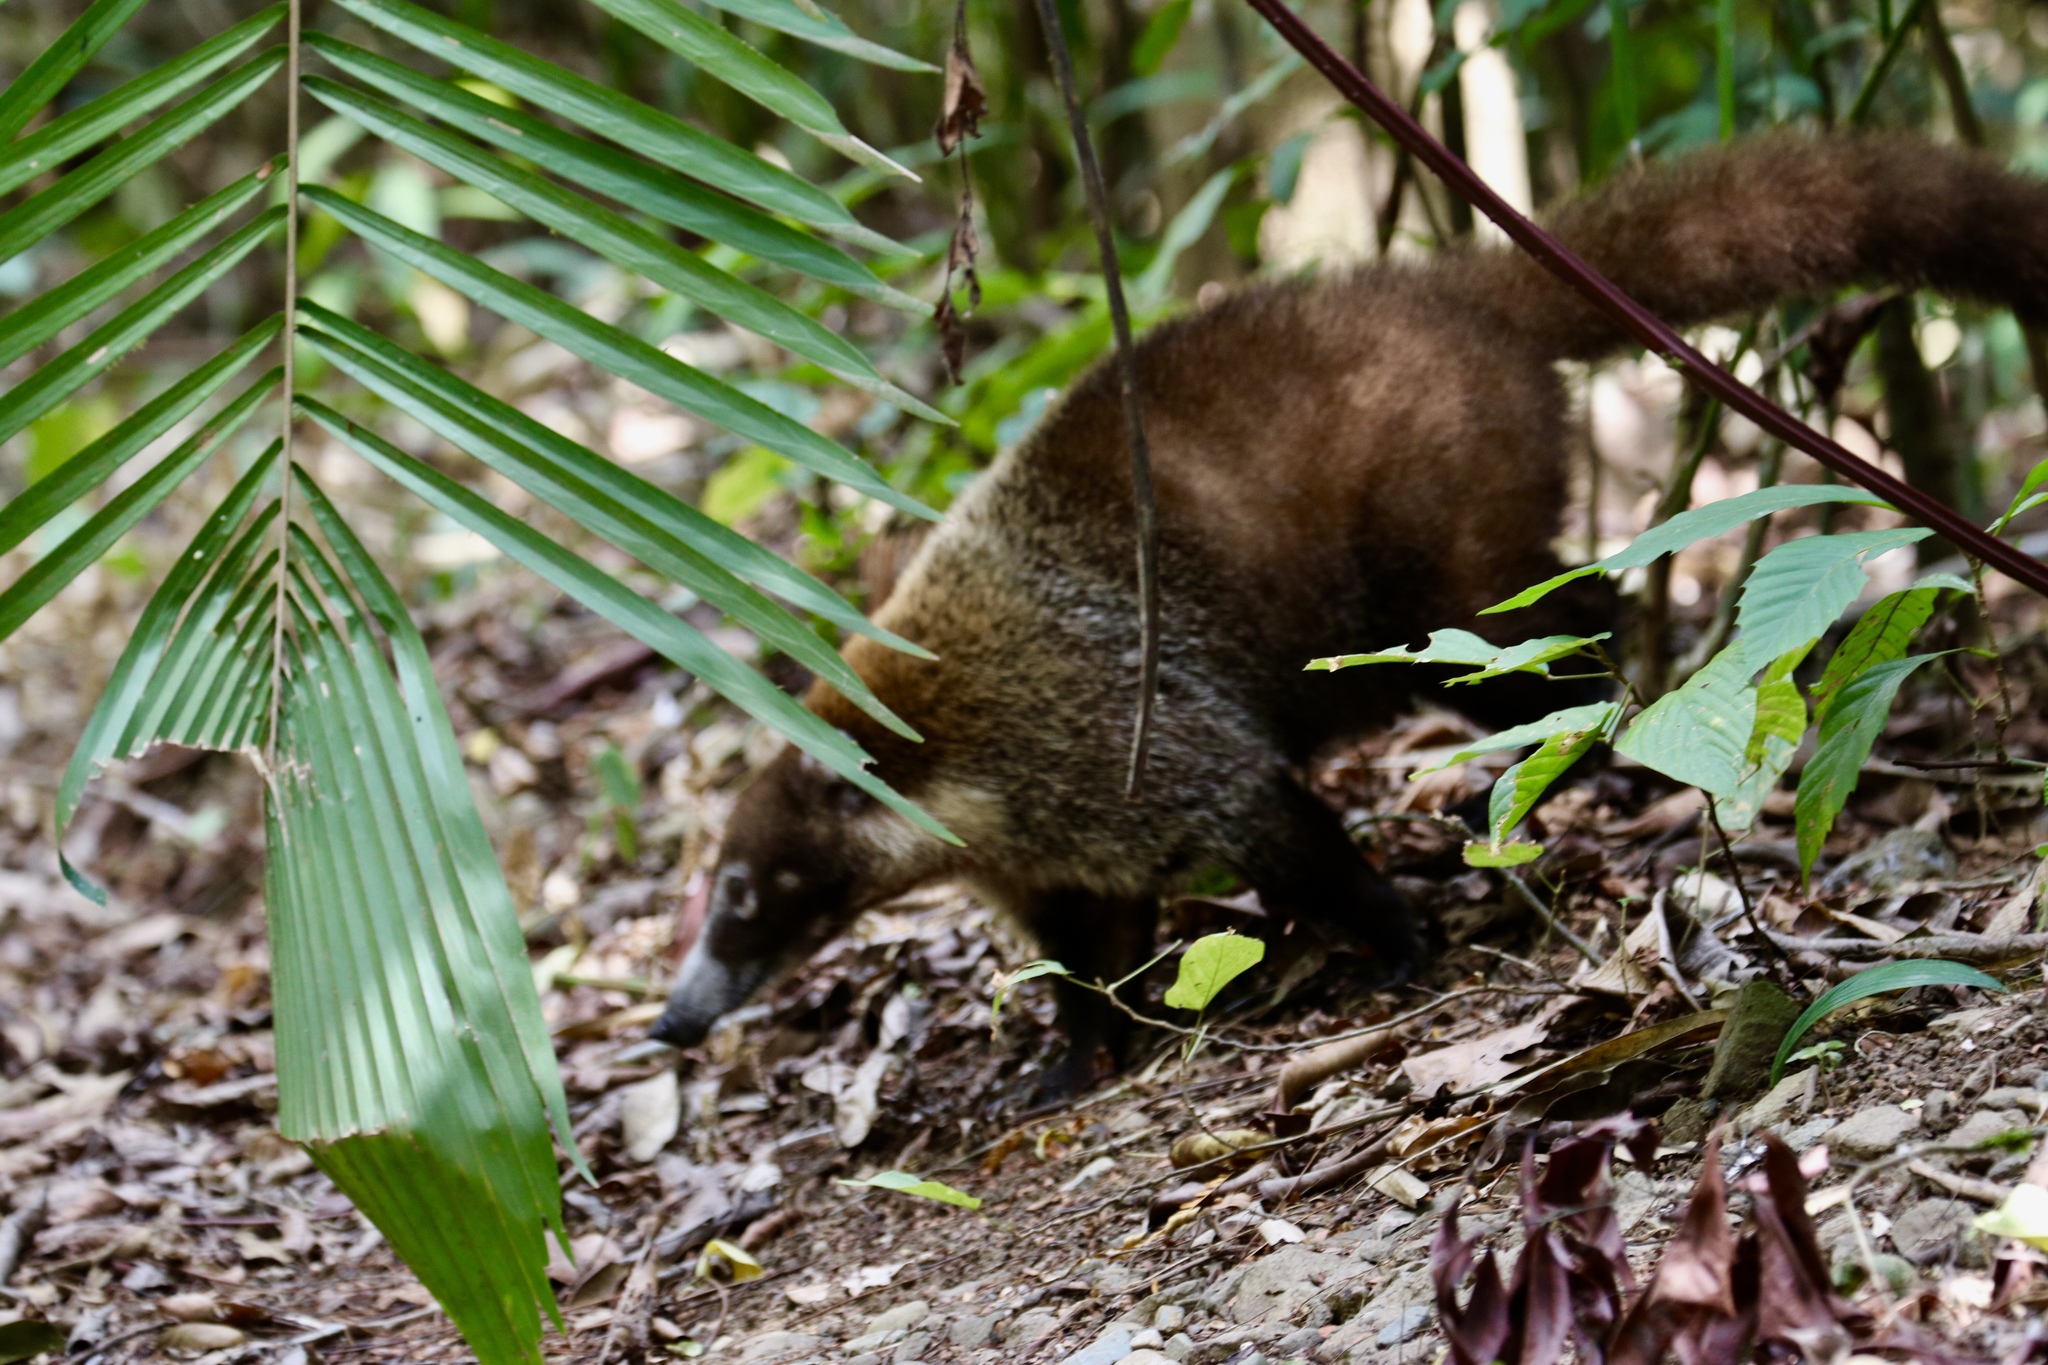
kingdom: Animalia
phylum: Chordata
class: Mammalia
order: Carnivora
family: Procyonidae
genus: Nasua
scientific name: Nasua narica
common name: White-nosed coati
